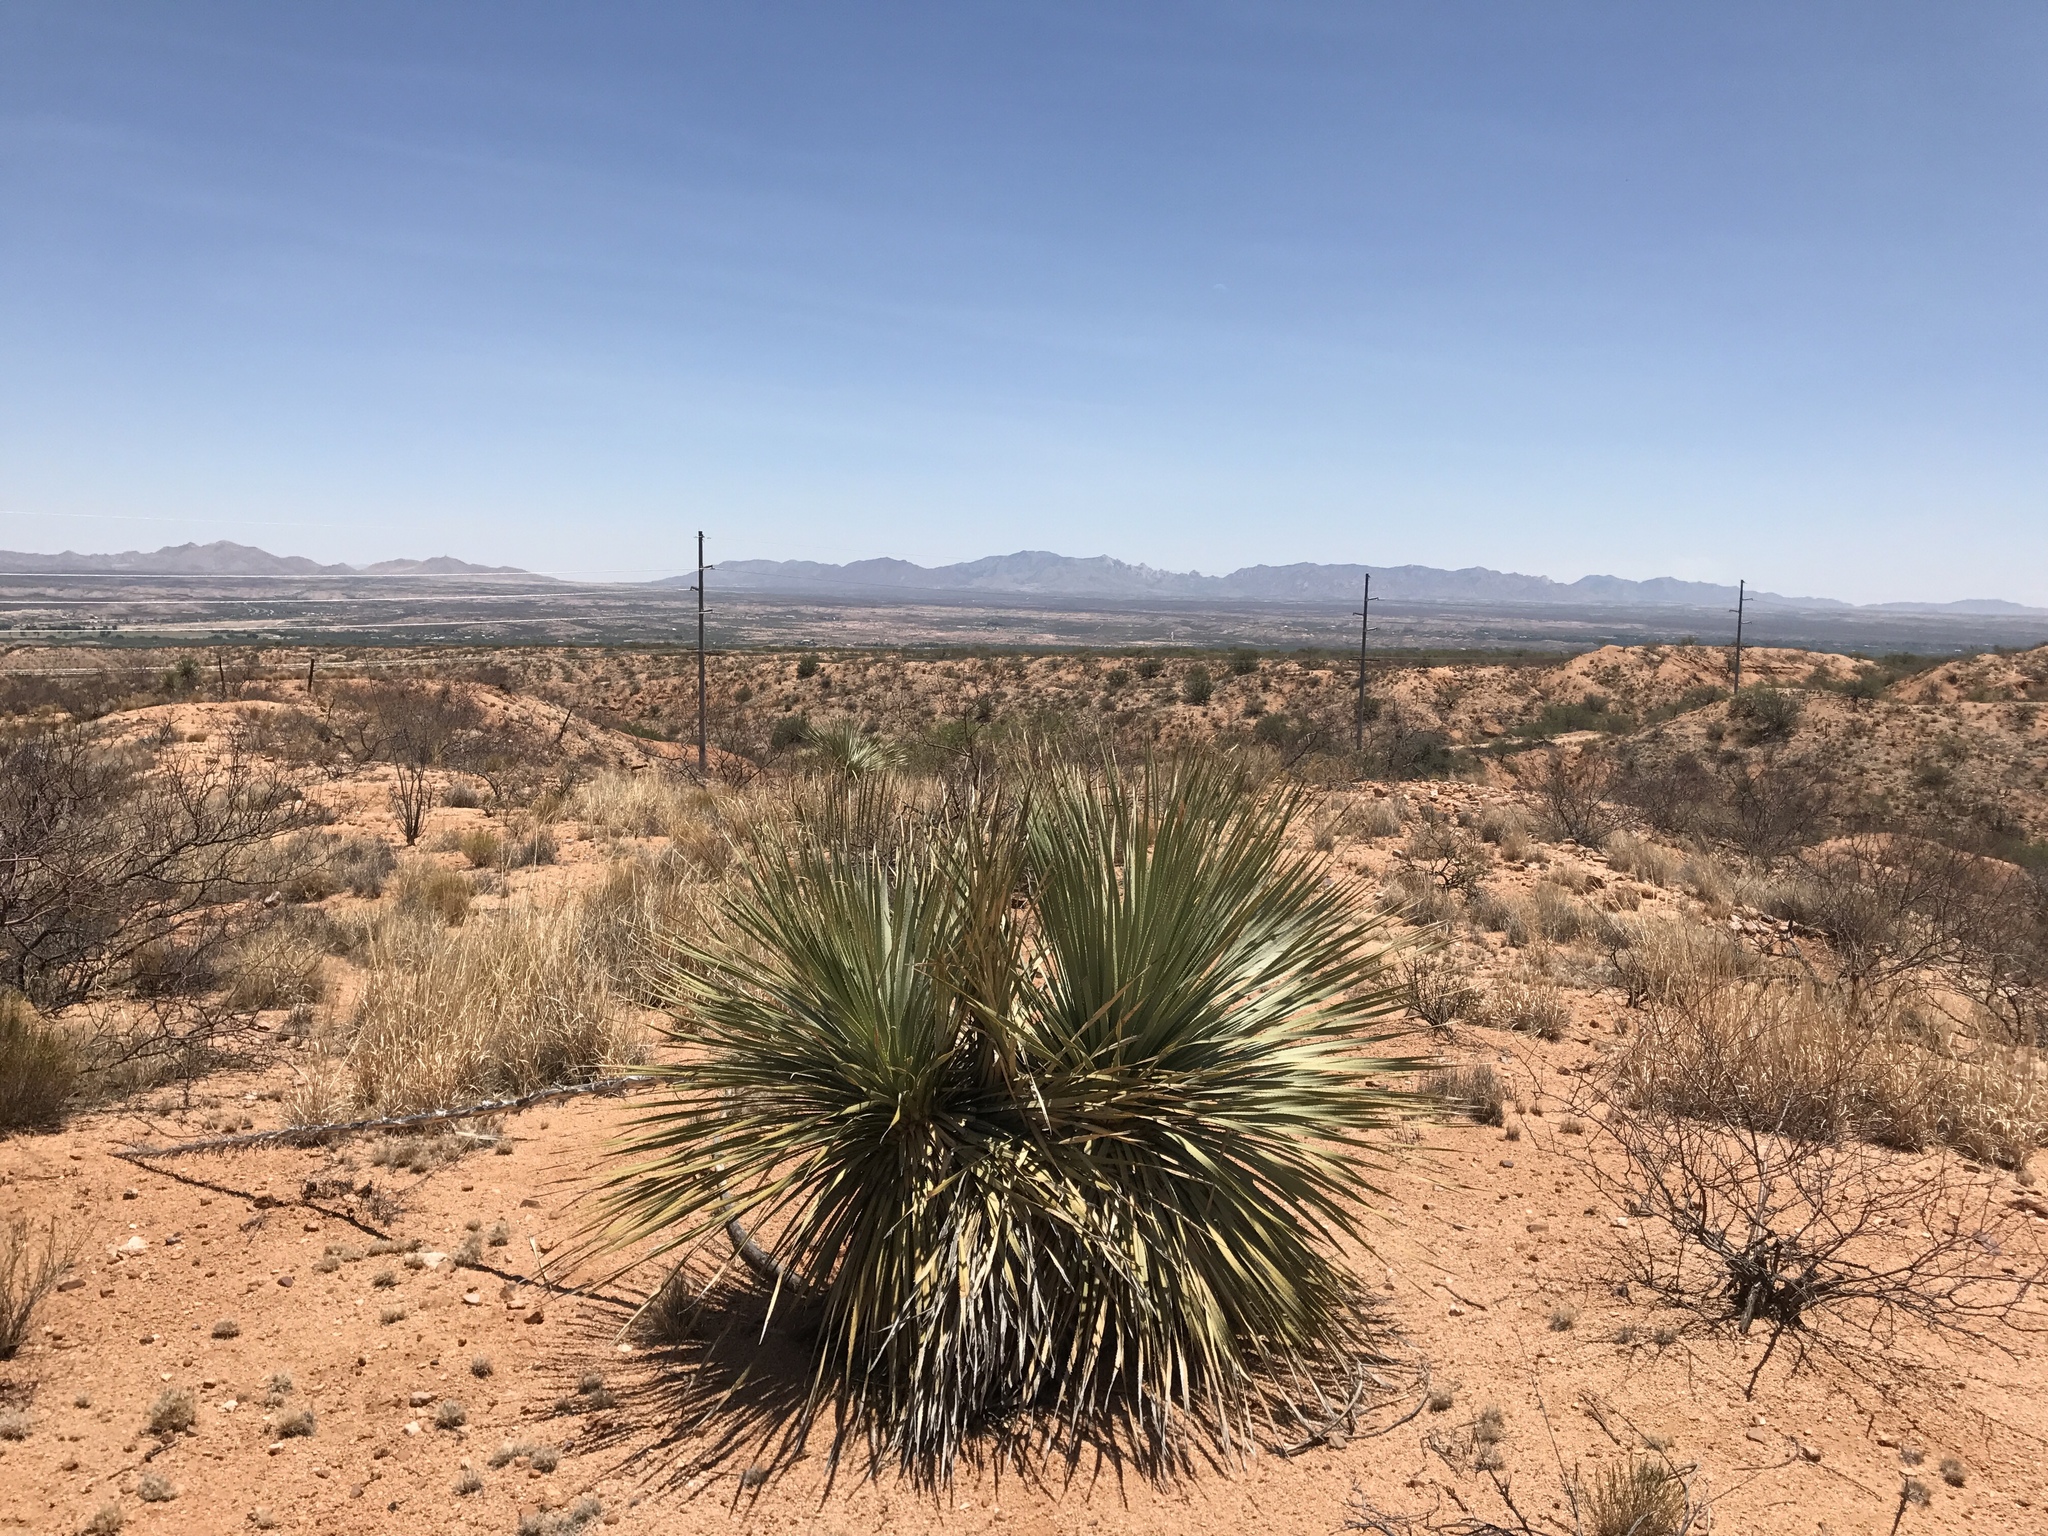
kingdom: Plantae
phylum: Tracheophyta
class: Liliopsida
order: Asparagales
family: Asparagaceae
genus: Dasylirion
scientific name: Dasylirion wheeleri
